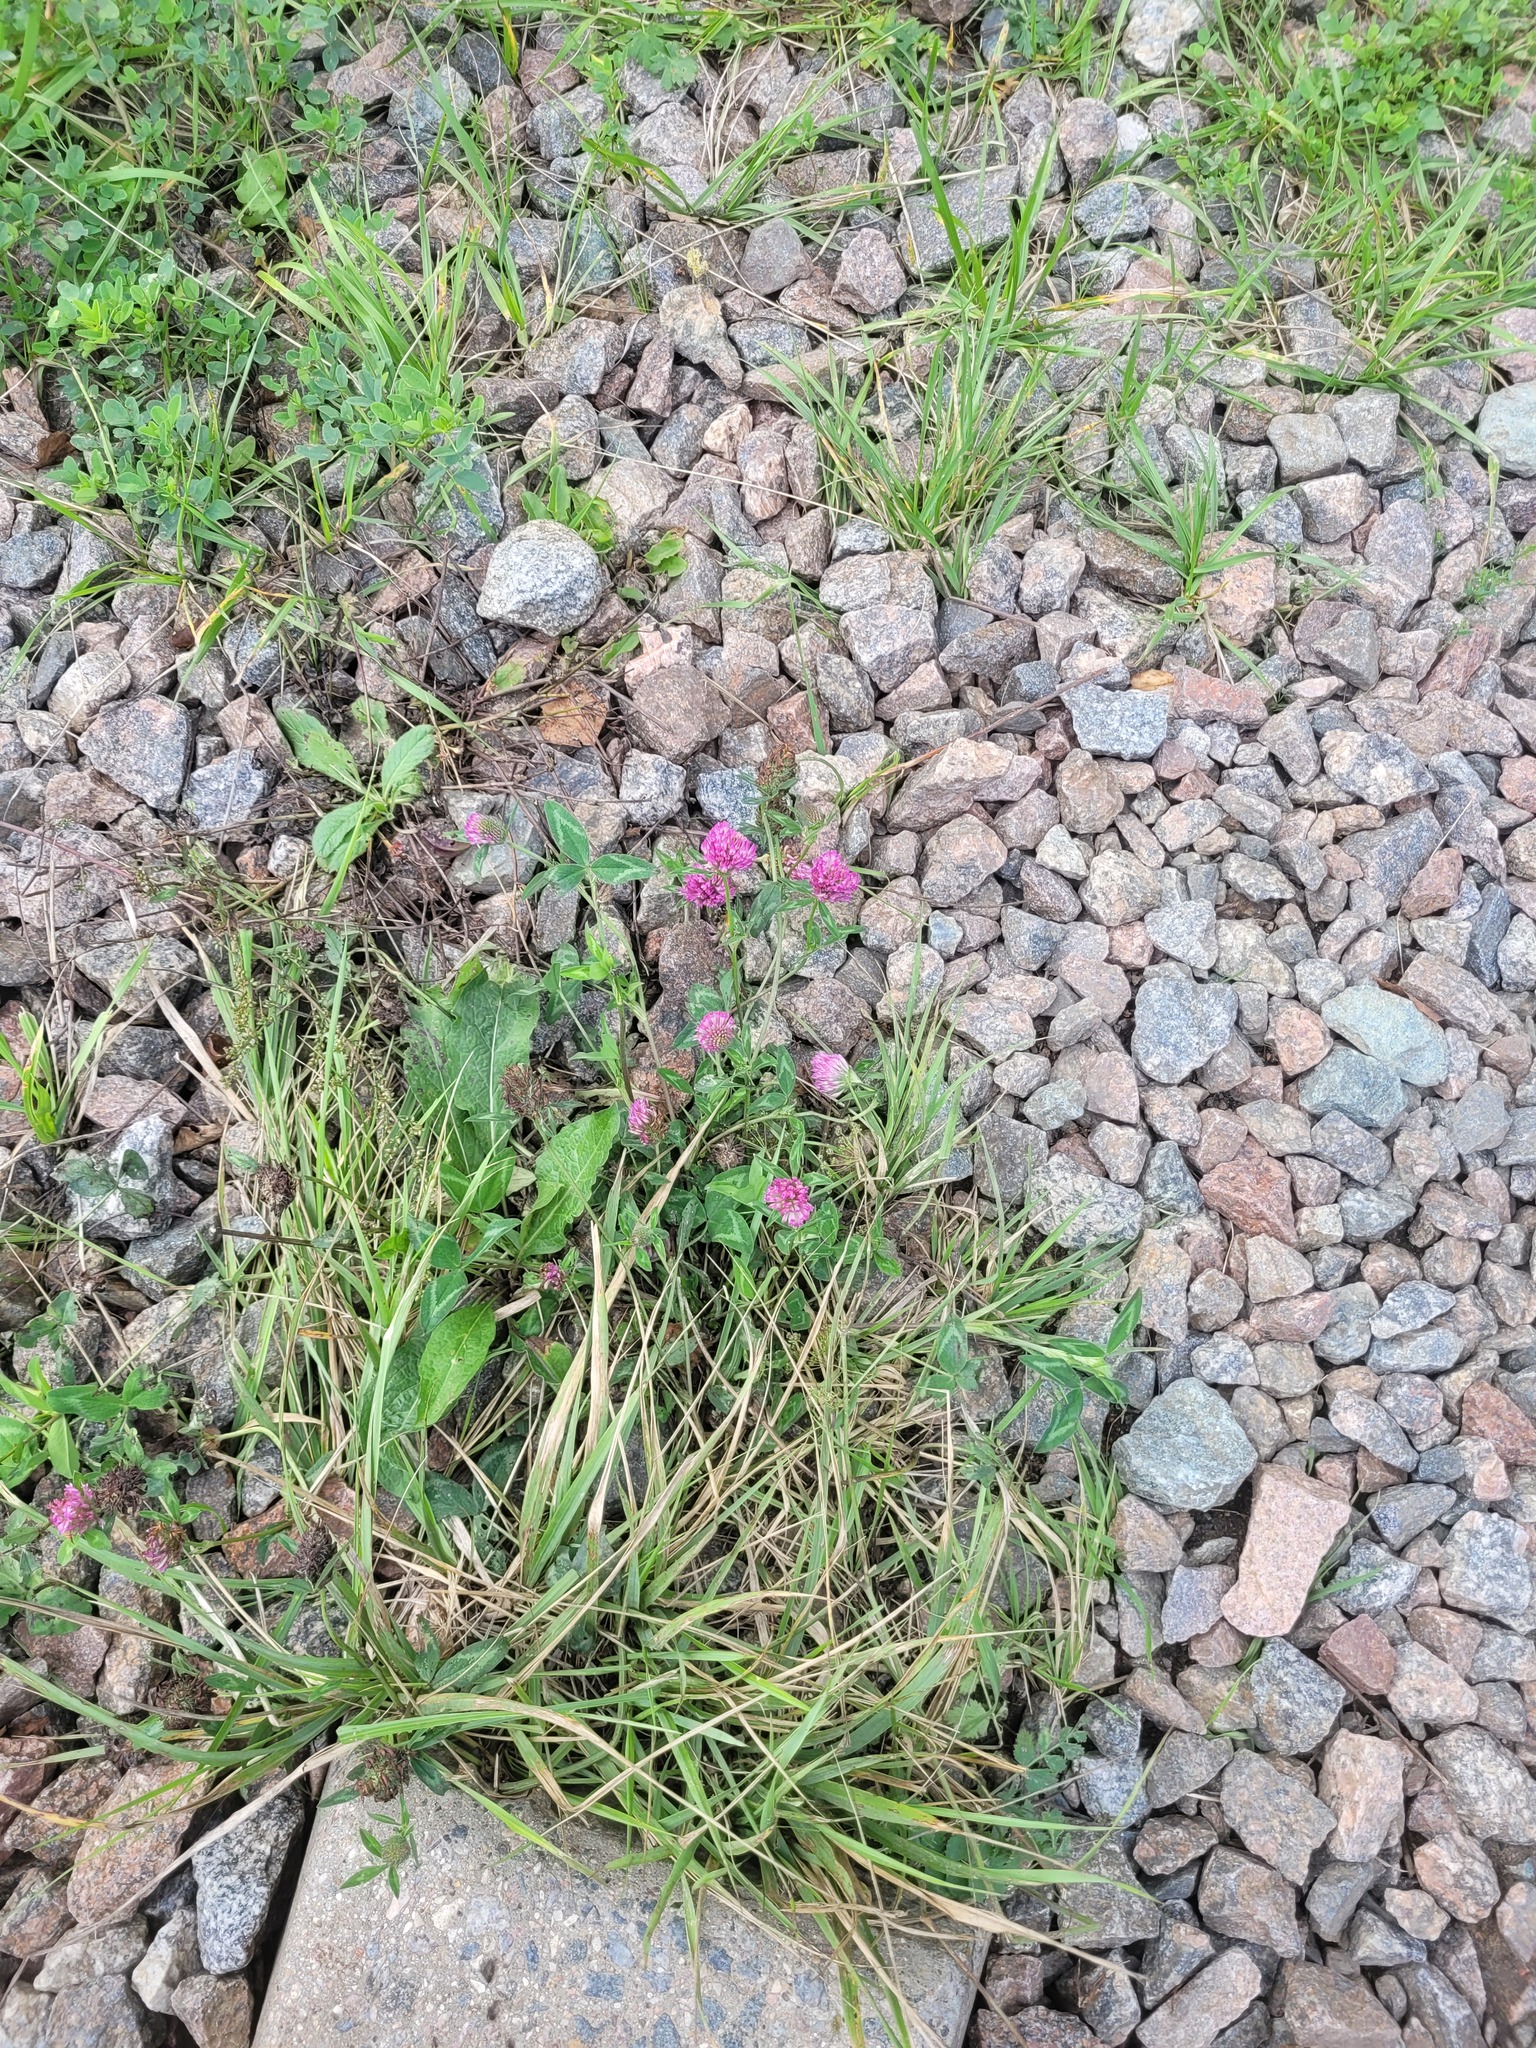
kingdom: Plantae
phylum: Tracheophyta
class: Magnoliopsida
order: Fabales
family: Fabaceae
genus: Trifolium
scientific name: Trifolium pratense
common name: Red clover
